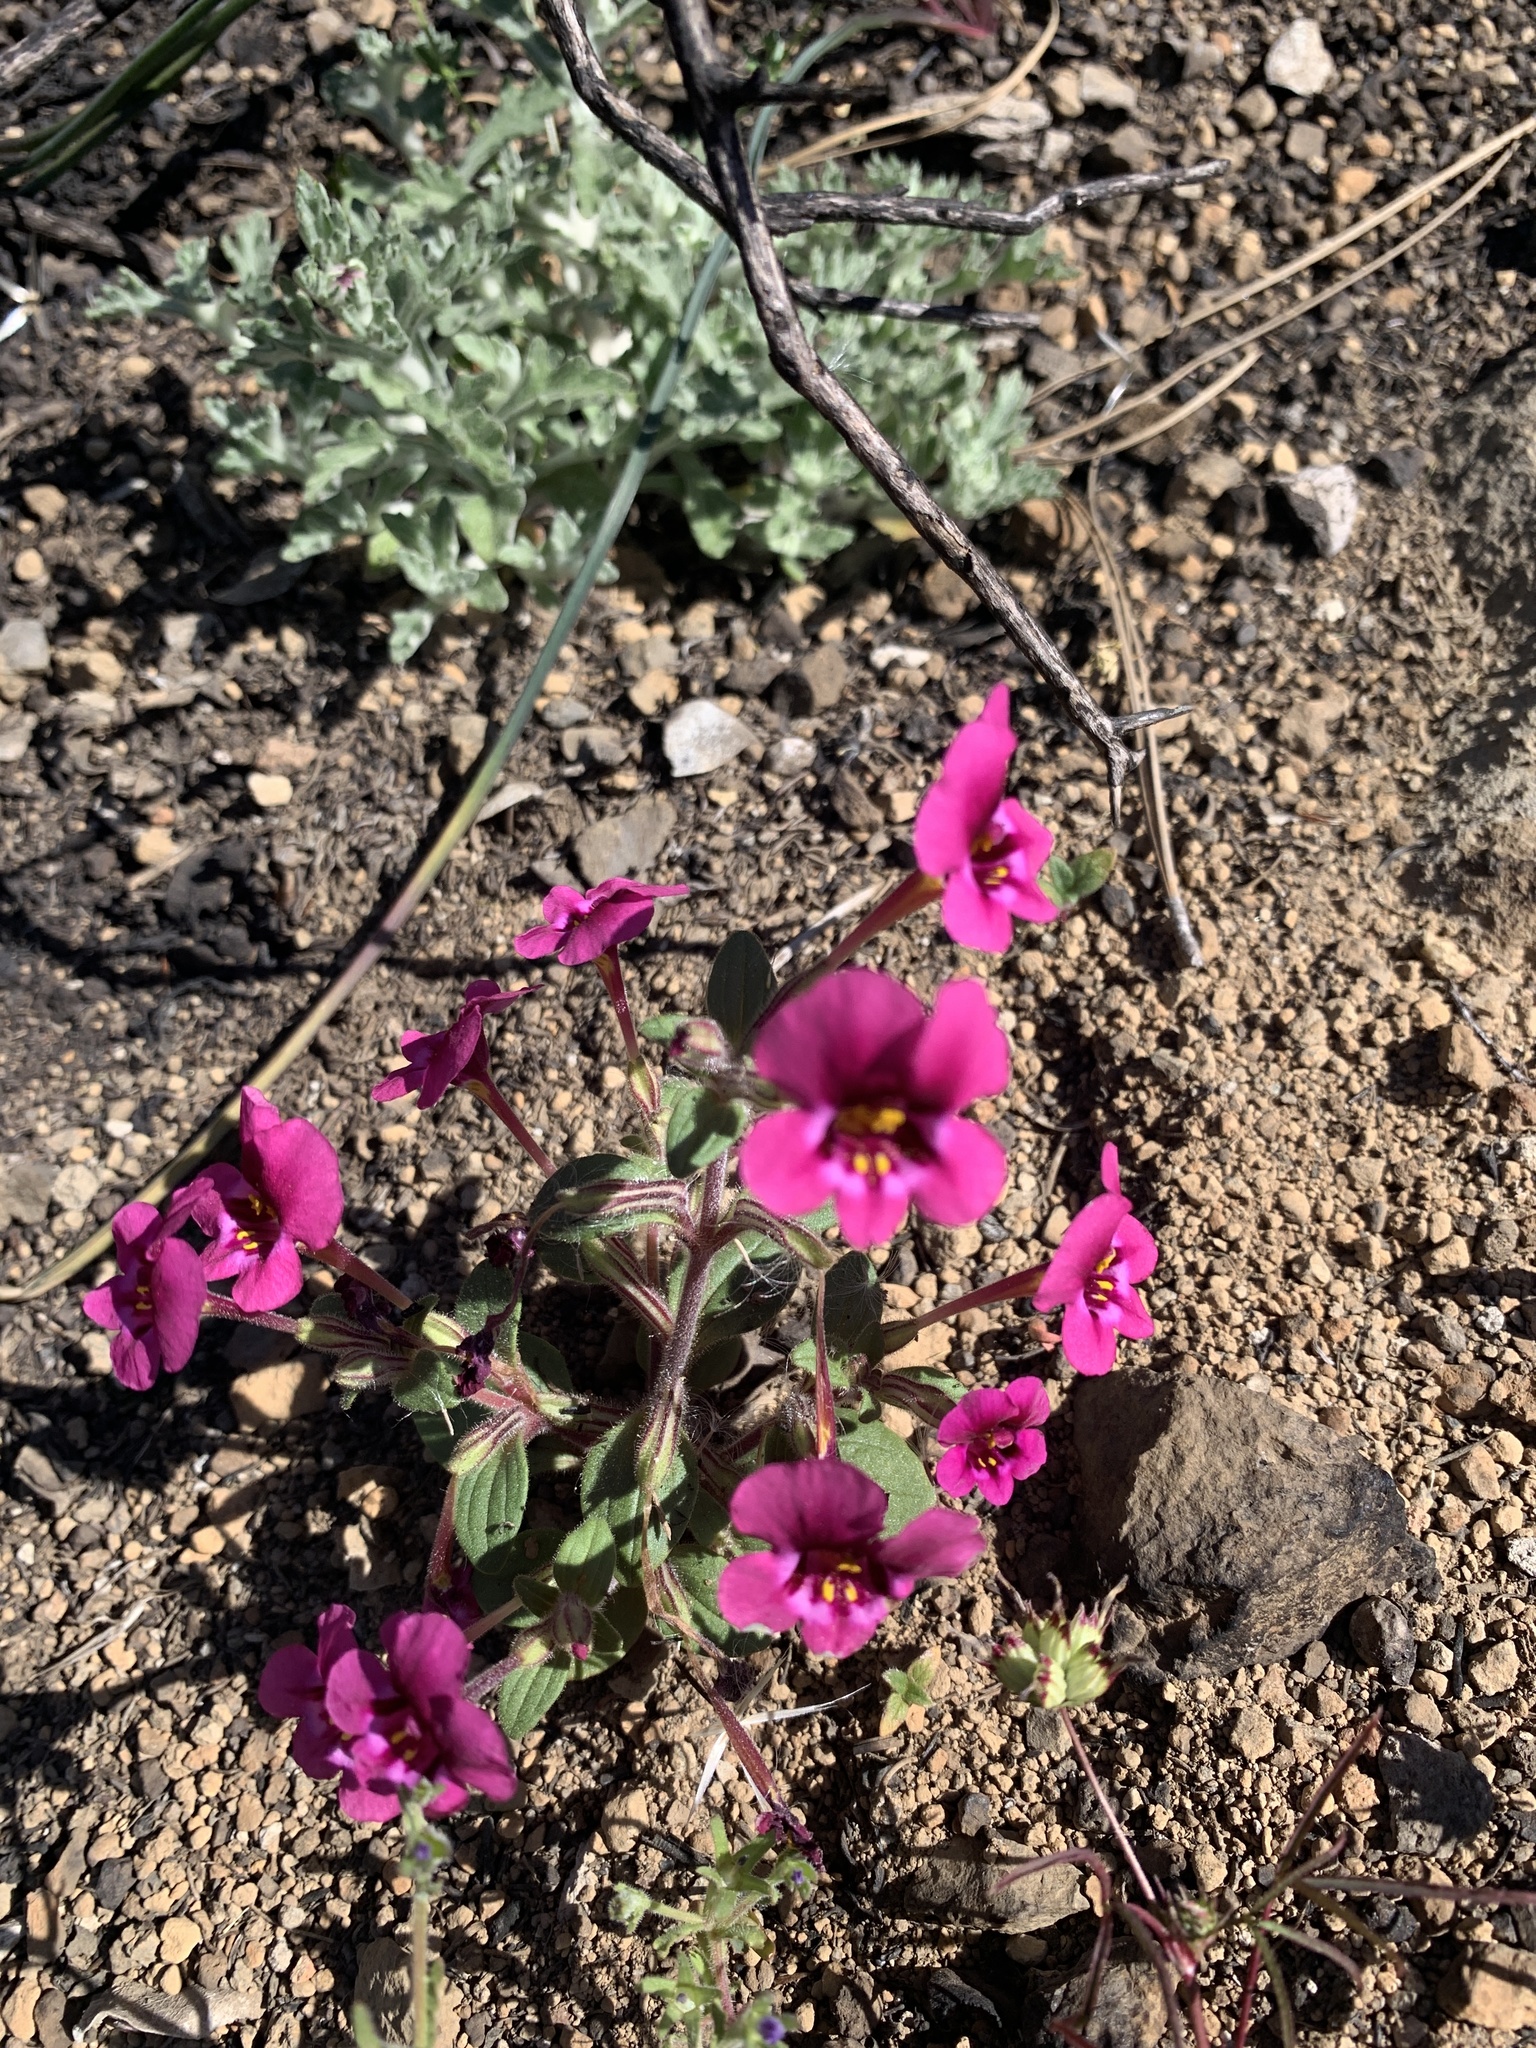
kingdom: Plantae
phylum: Tracheophyta
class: Magnoliopsida
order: Lamiales
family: Phrymaceae
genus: Diplacus
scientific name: Diplacus kelloggii
